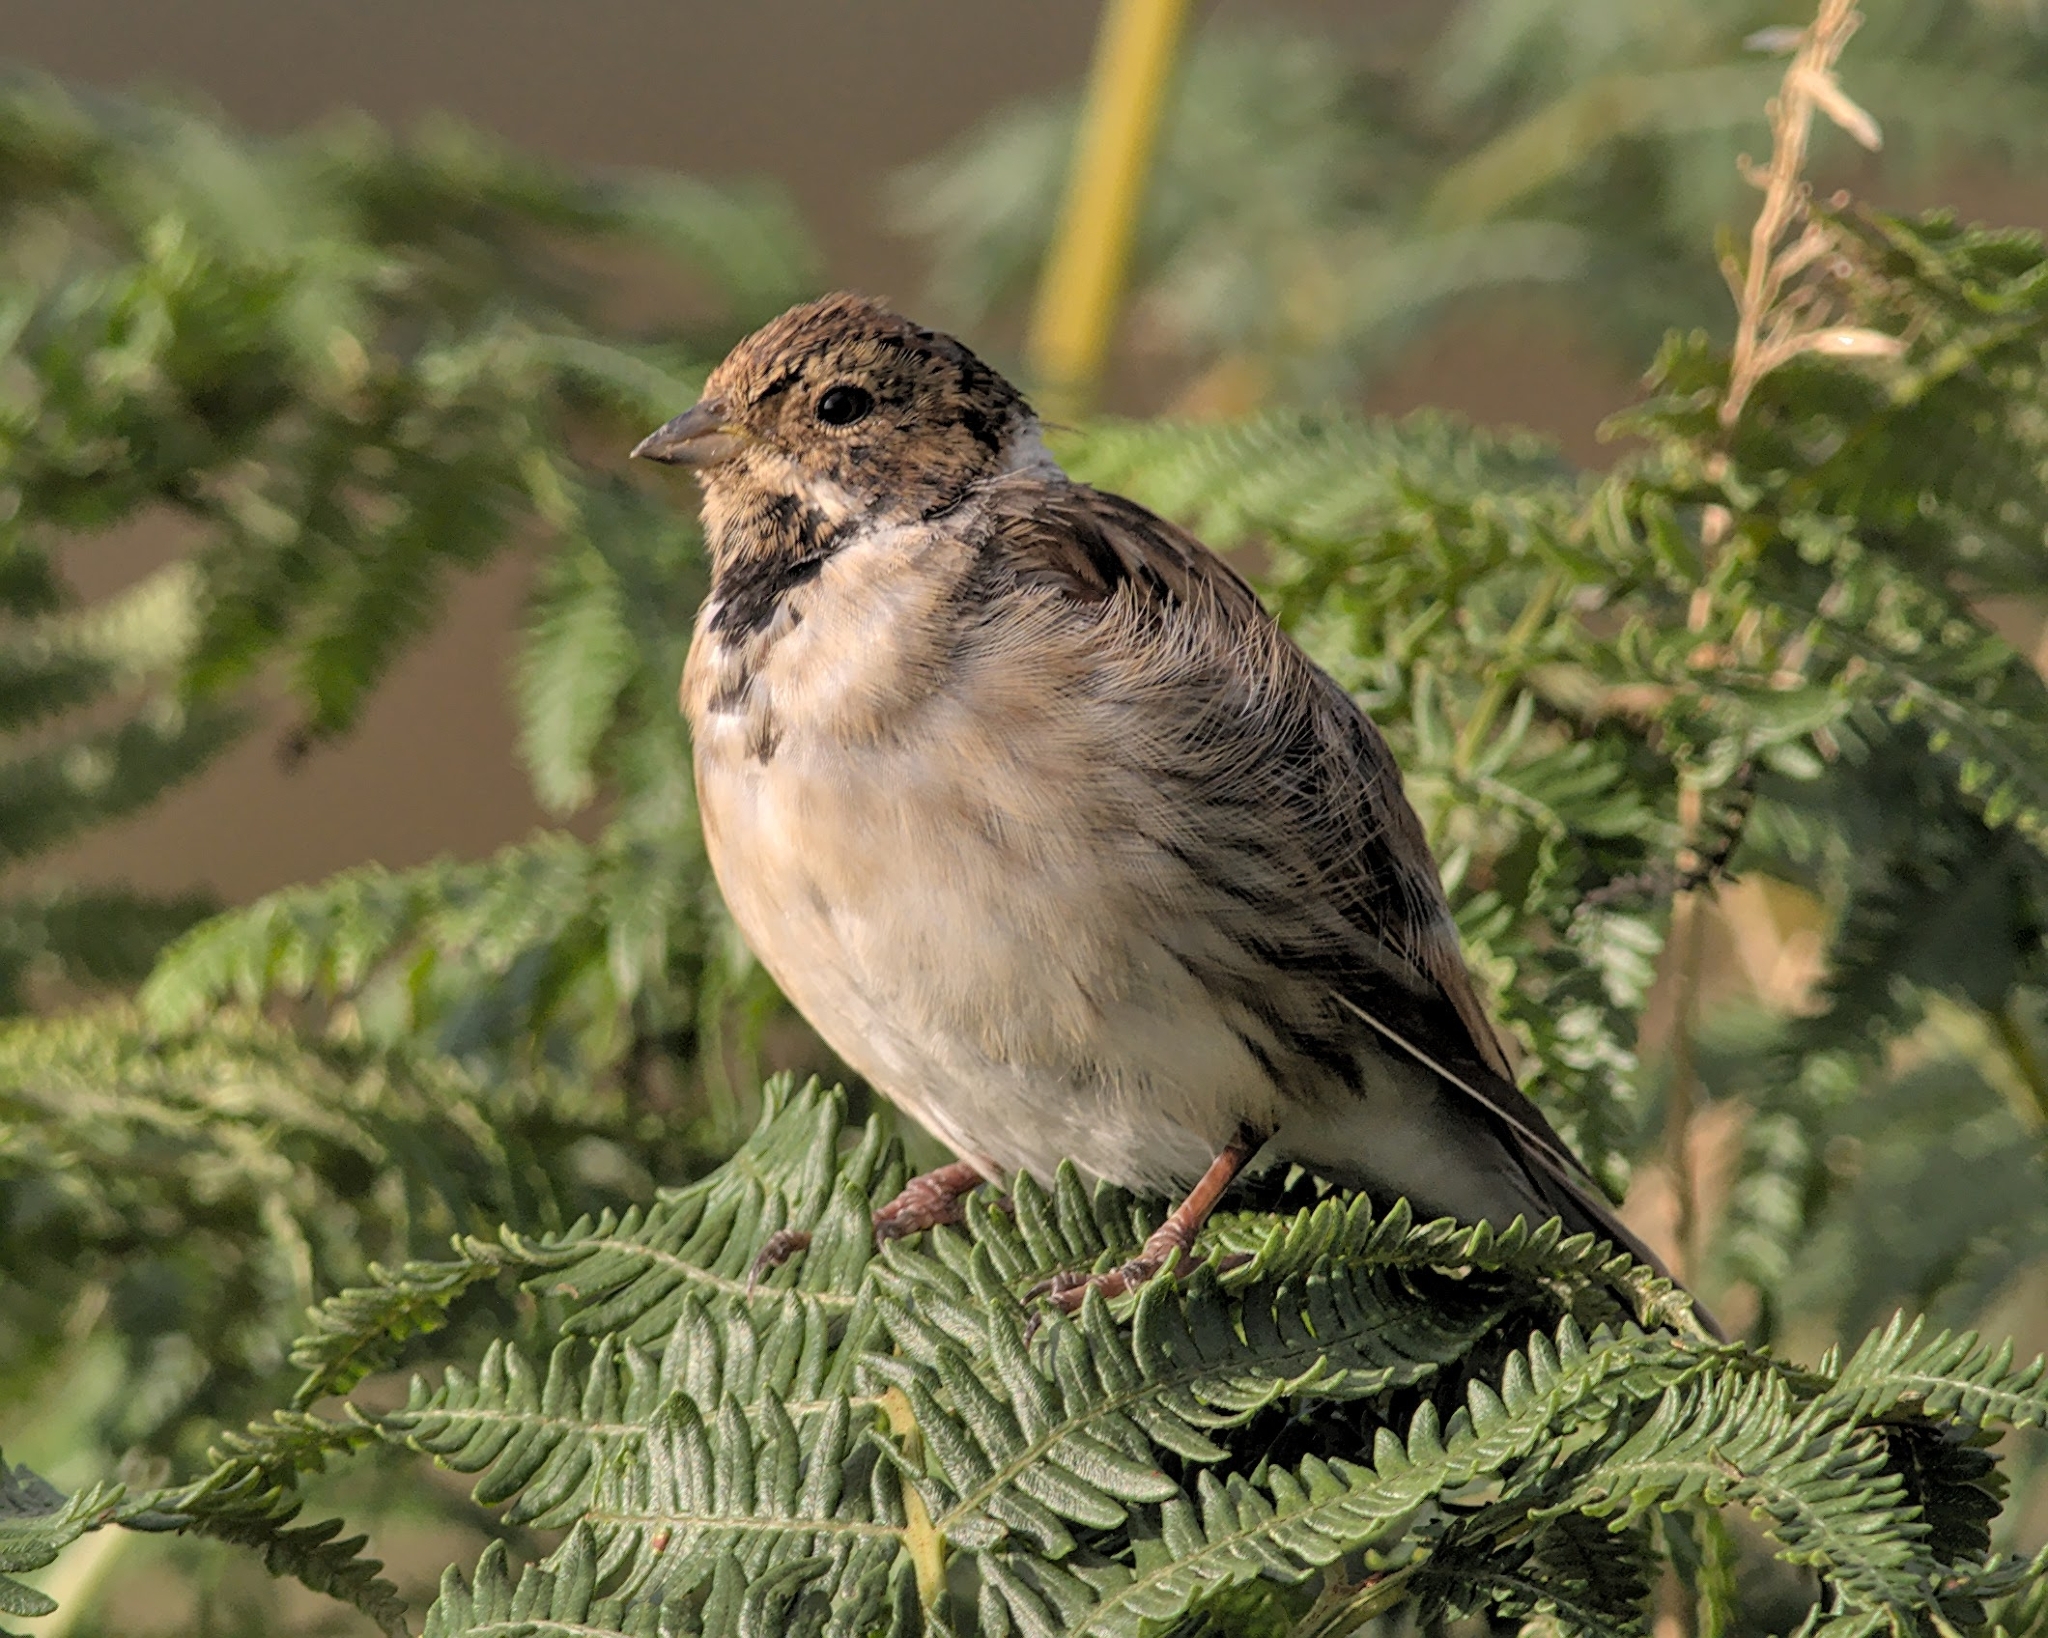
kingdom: Animalia
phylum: Chordata
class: Aves
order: Passeriformes
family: Emberizidae
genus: Emberiza
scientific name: Emberiza schoeniclus
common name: Reed bunting
